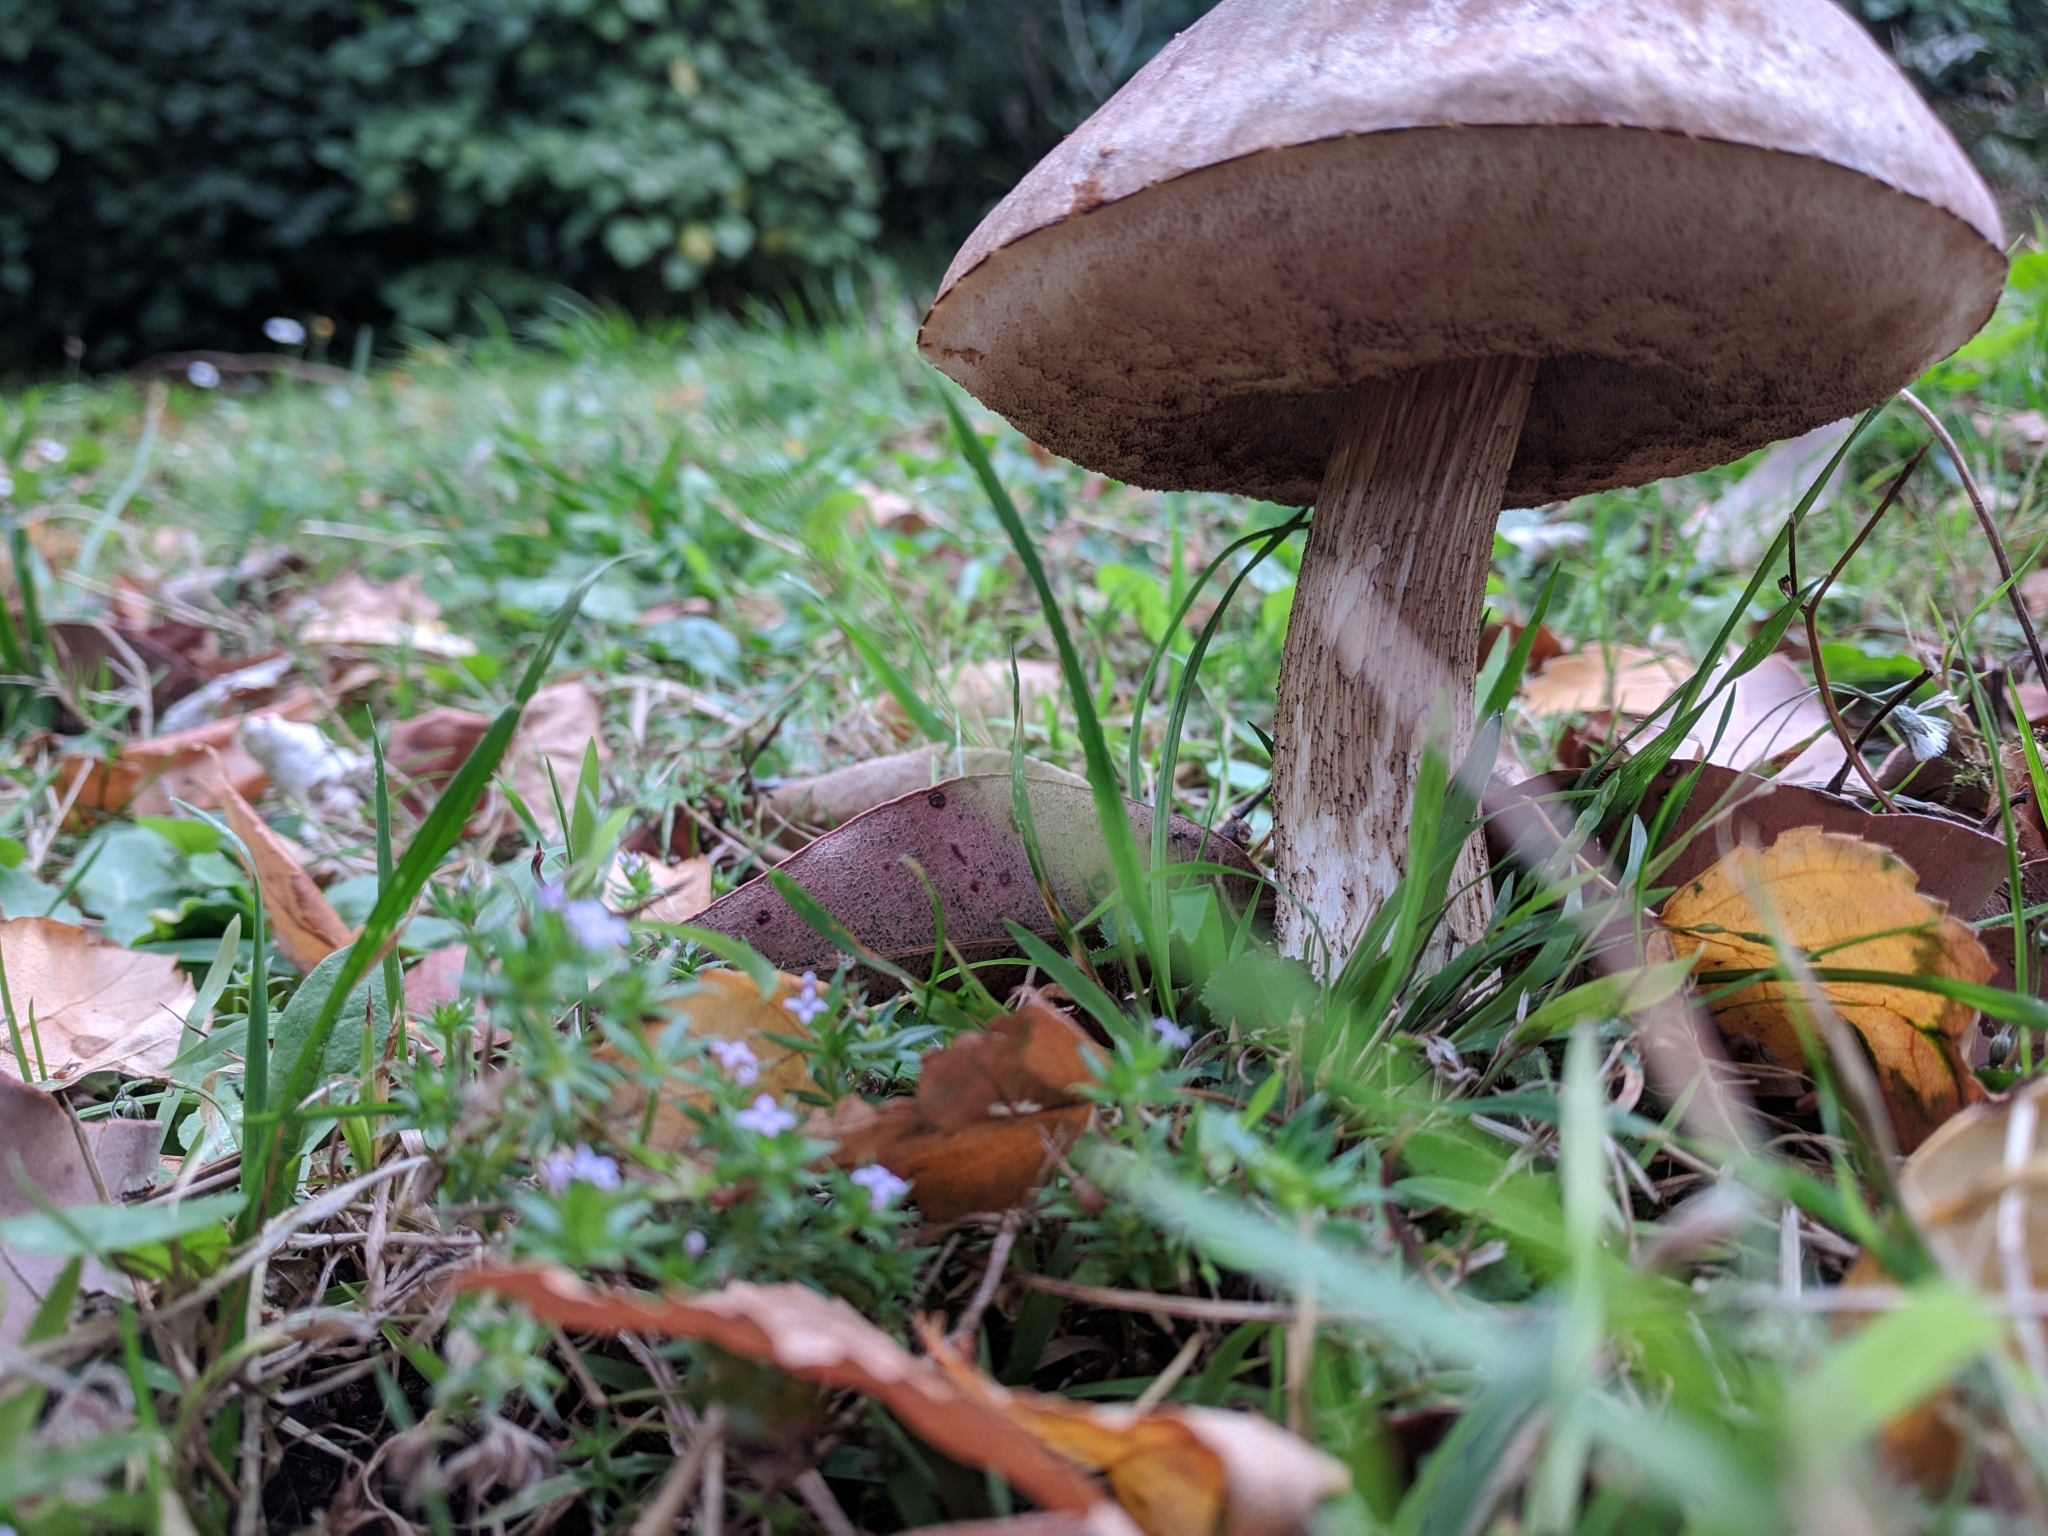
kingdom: Fungi
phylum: Basidiomycota
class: Agaricomycetes
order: Boletales
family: Boletaceae
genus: Leccinum
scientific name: Leccinum scabrum
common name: Blushing bolete
